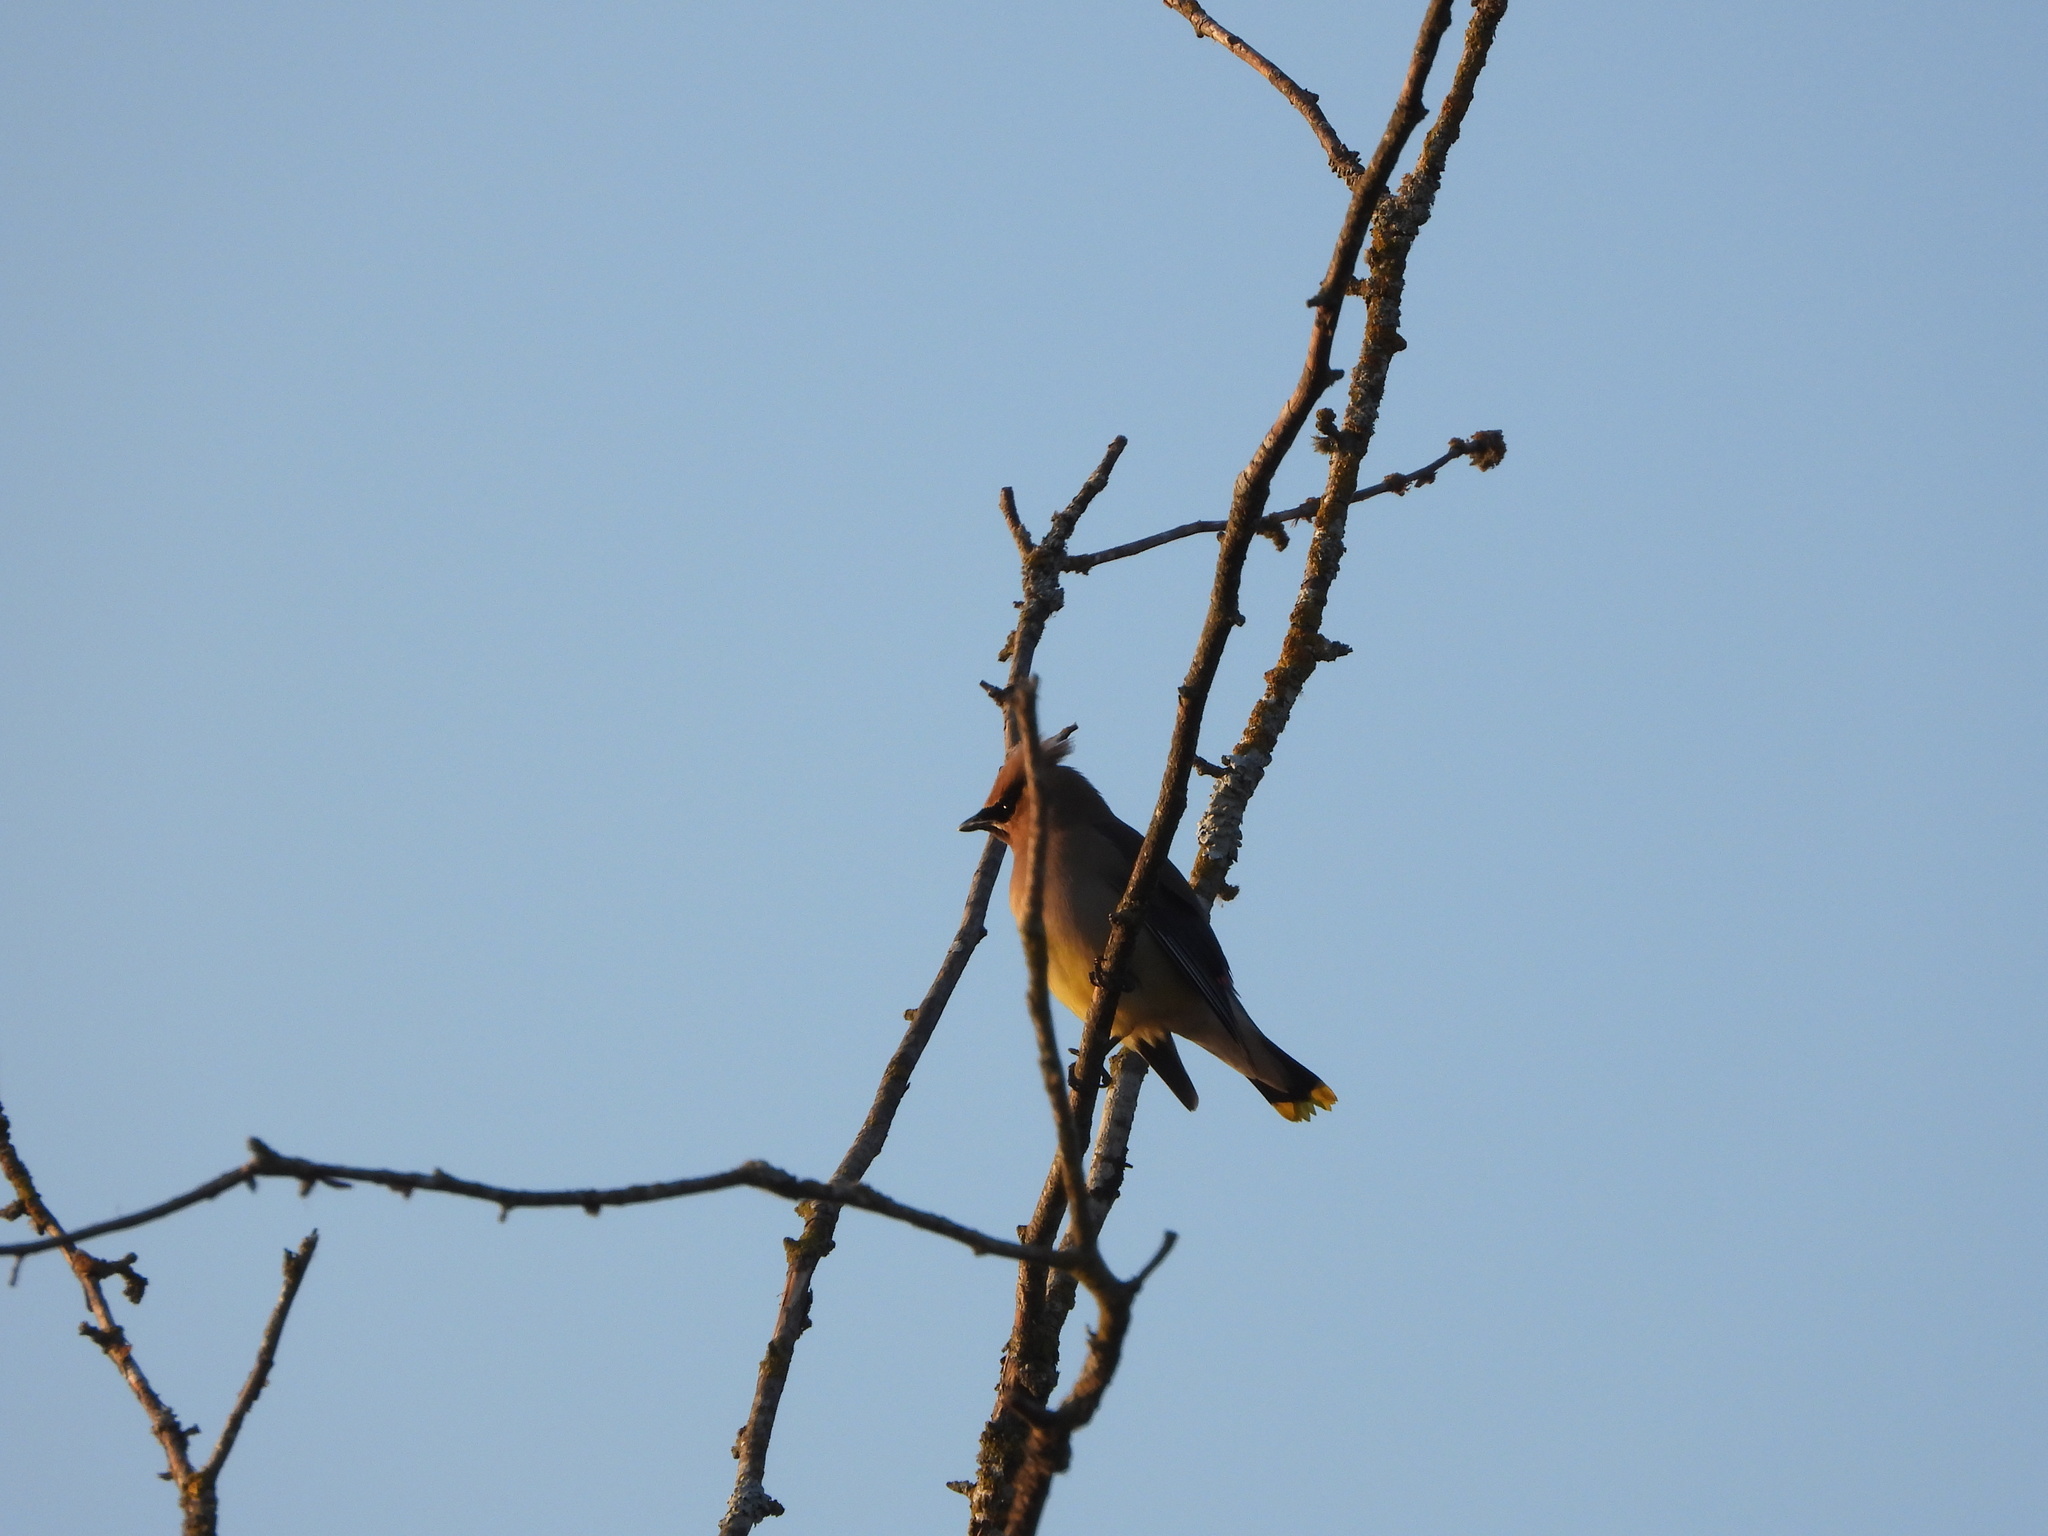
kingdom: Animalia
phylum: Chordata
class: Aves
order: Passeriformes
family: Bombycillidae
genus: Bombycilla
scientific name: Bombycilla cedrorum
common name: Cedar waxwing
